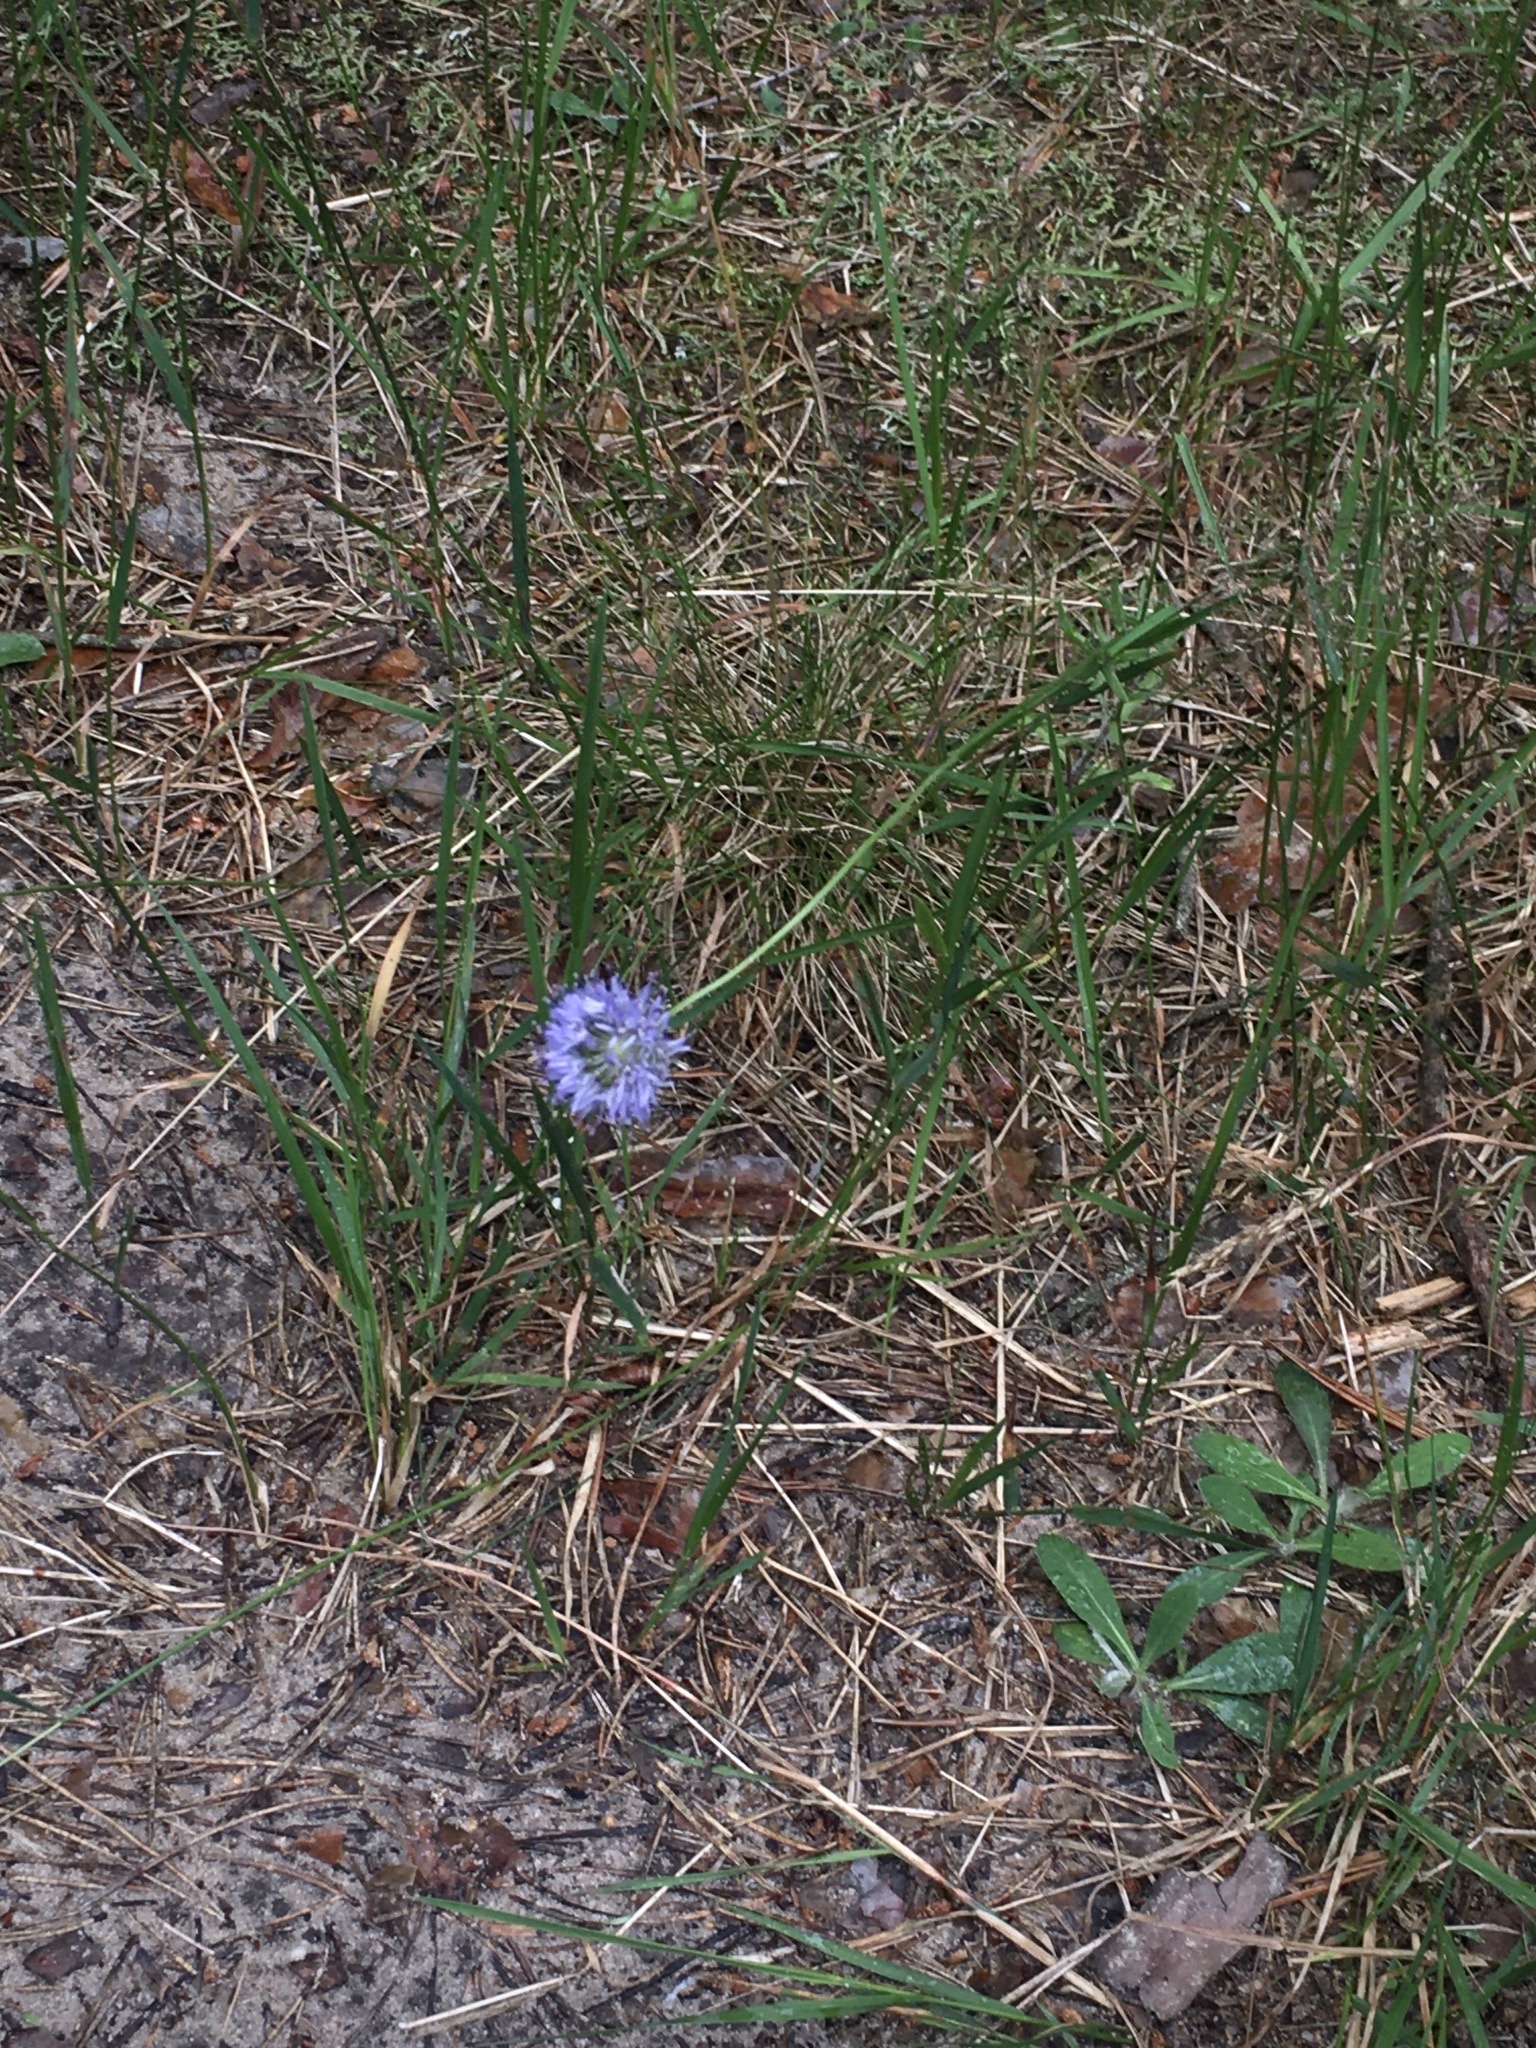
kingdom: Plantae
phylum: Tracheophyta
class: Magnoliopsida
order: Asterales
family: Campanulaceae
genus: Jasione
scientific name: Jasione montana
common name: Sheep's-bit
